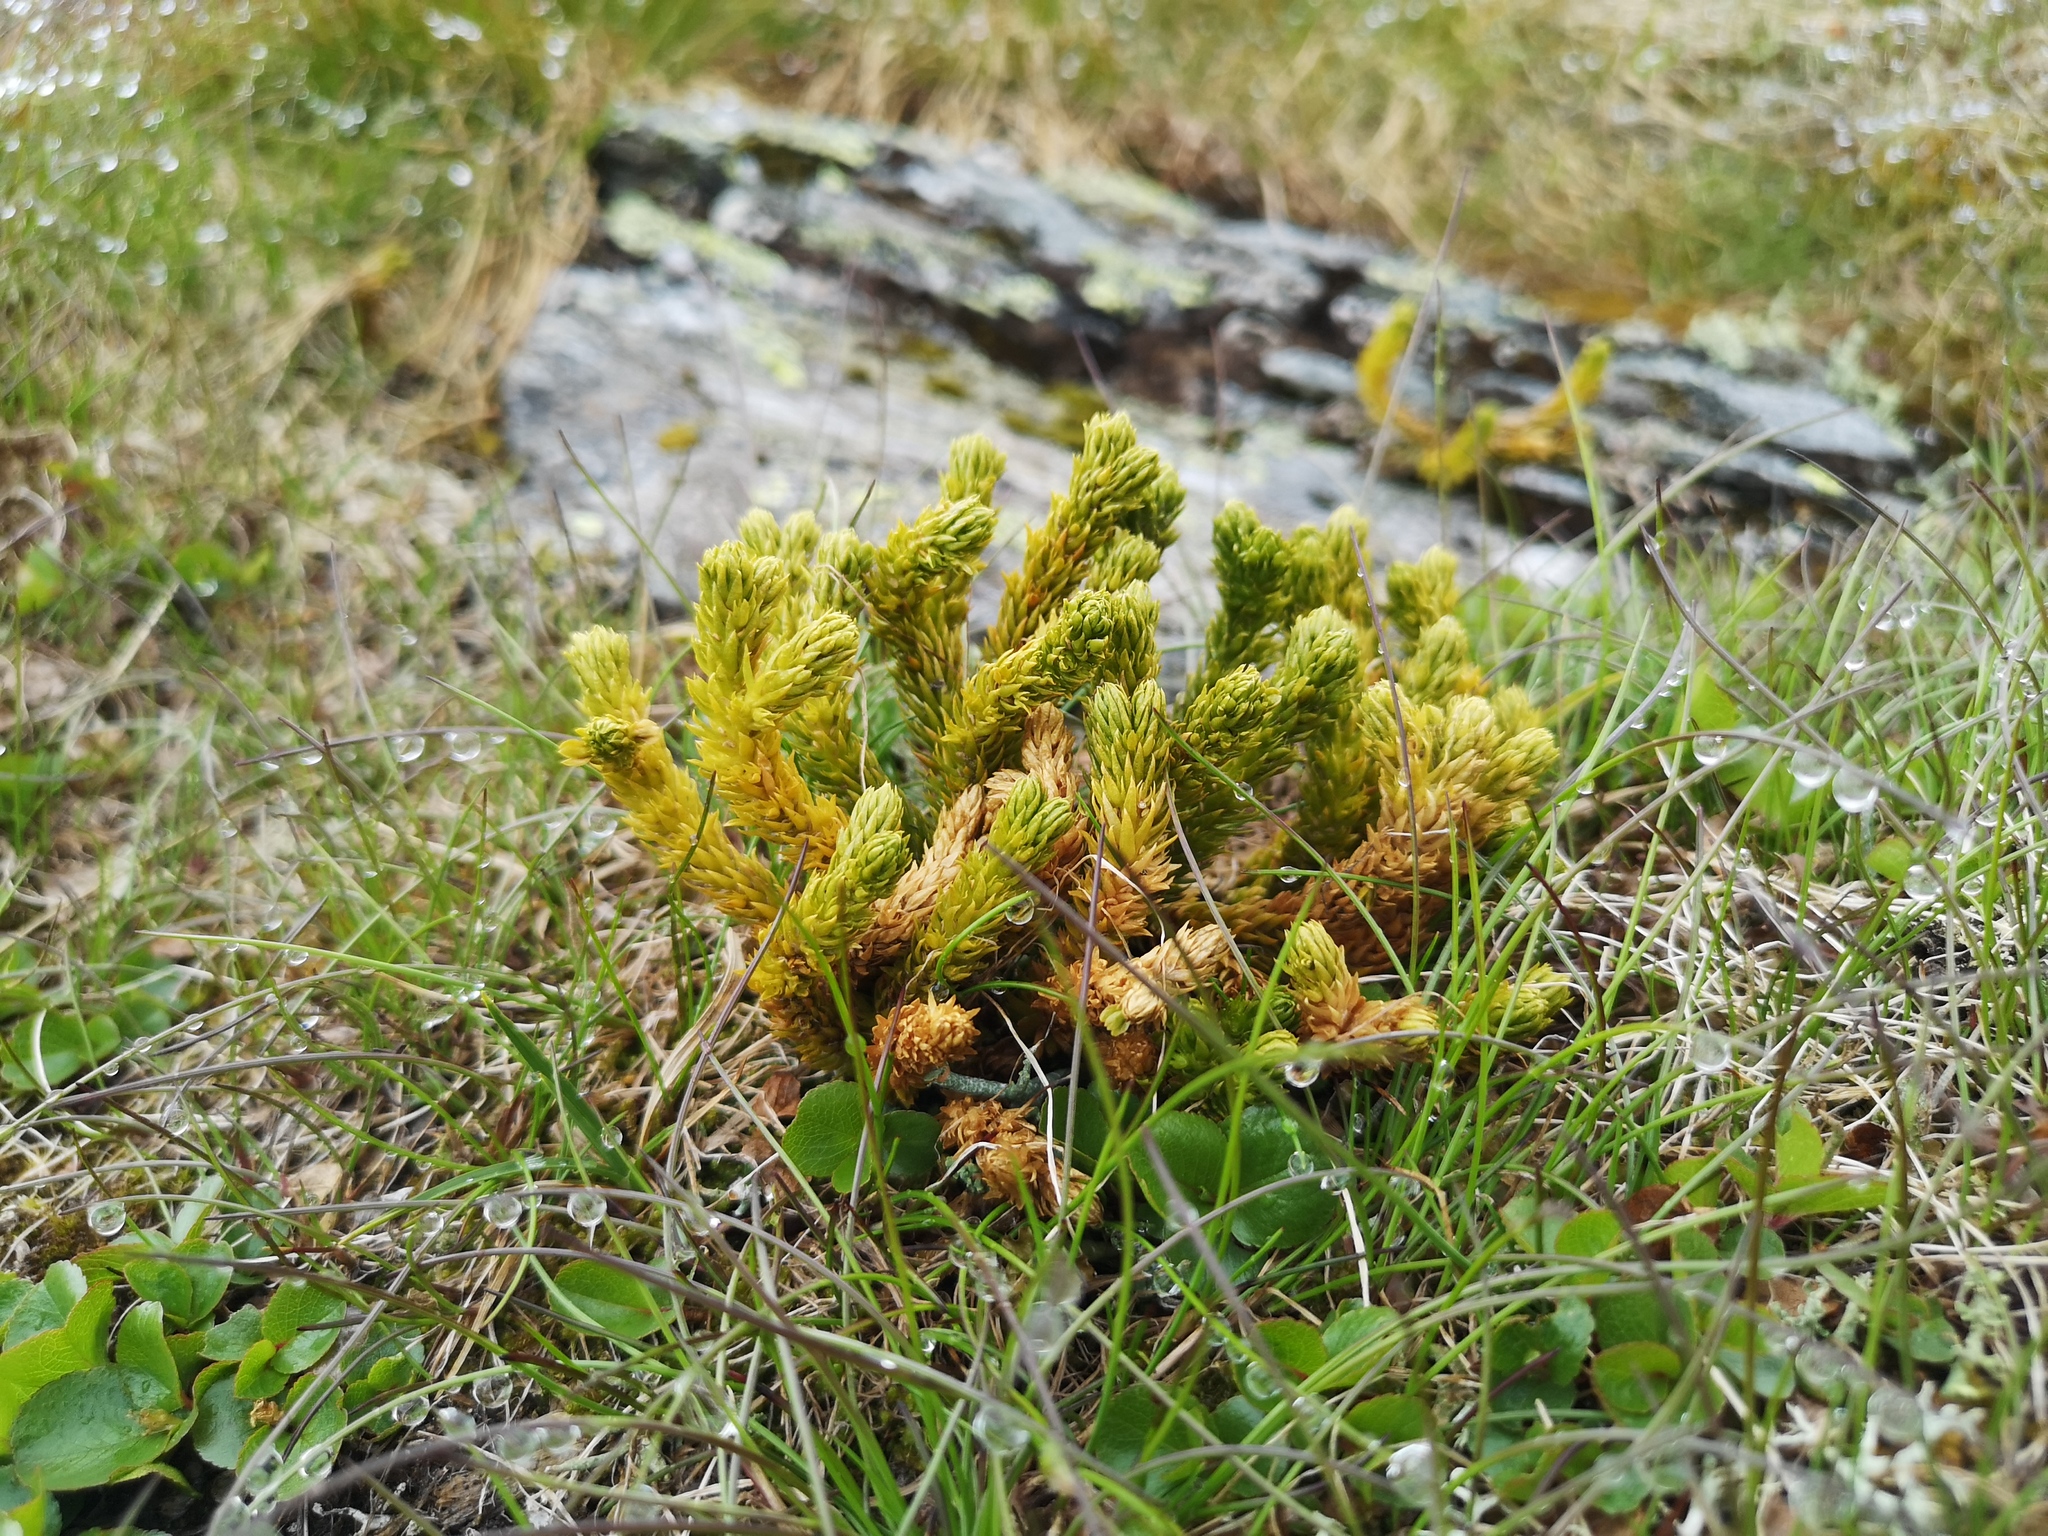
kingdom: Plantae
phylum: Tracheophyta
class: Lycopodiopsida
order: Lycopodiales
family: Lycopodiaceae
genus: Huperzia
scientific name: Huperzia selago
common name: Northern firmoss
